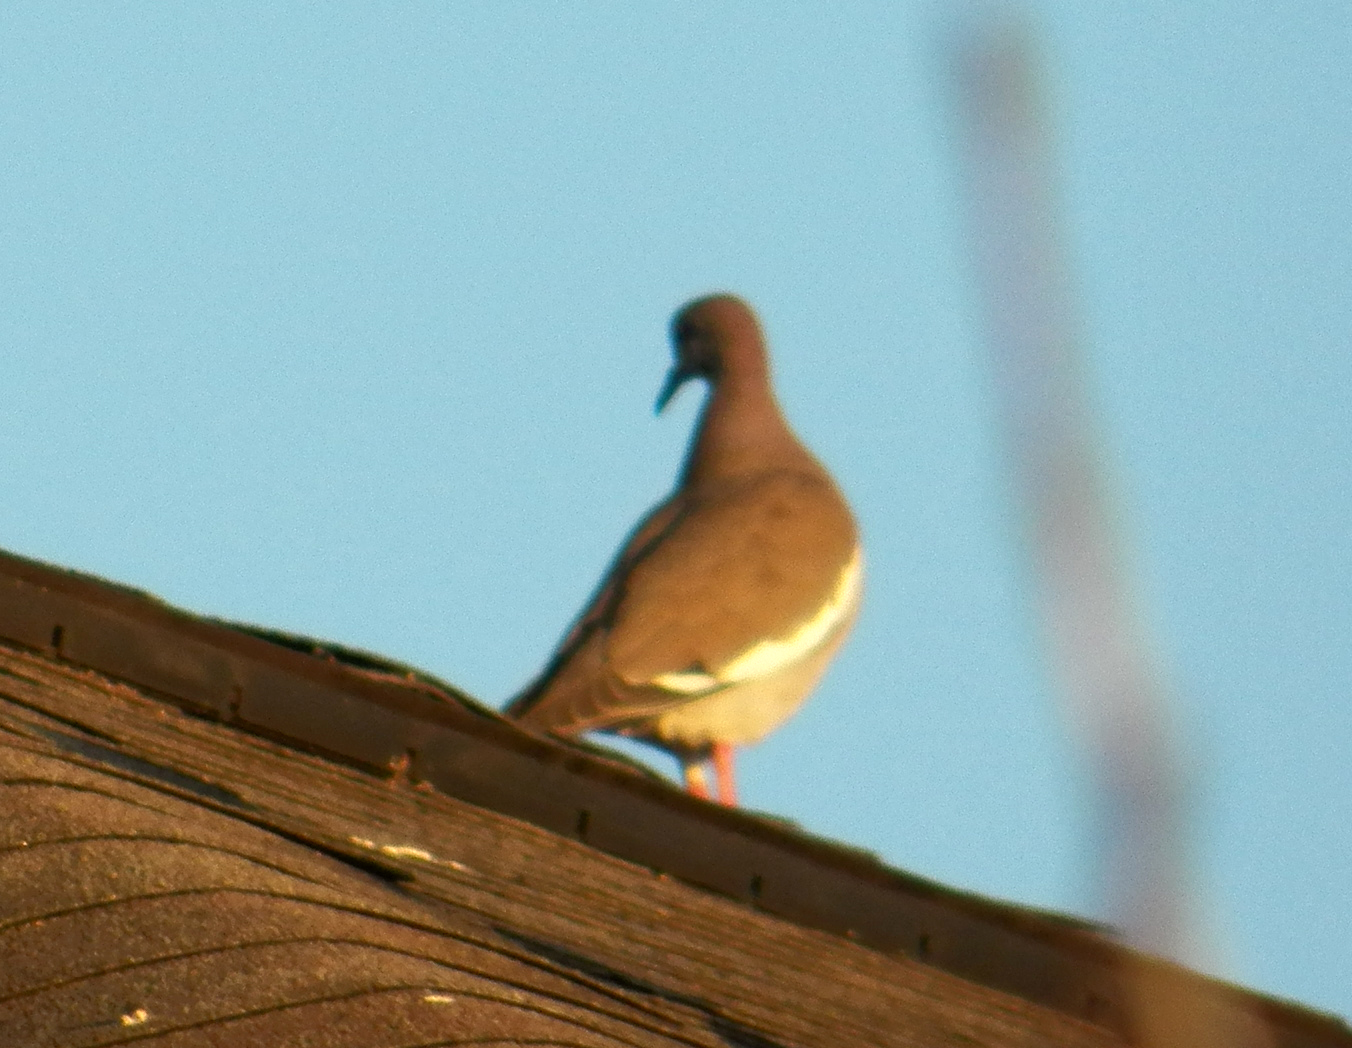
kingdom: Animalia
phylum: Chordata
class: Aves
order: Columbiformes
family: Columbidae
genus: Zenaida
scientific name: Zenaida asiatica
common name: White-winged dove
